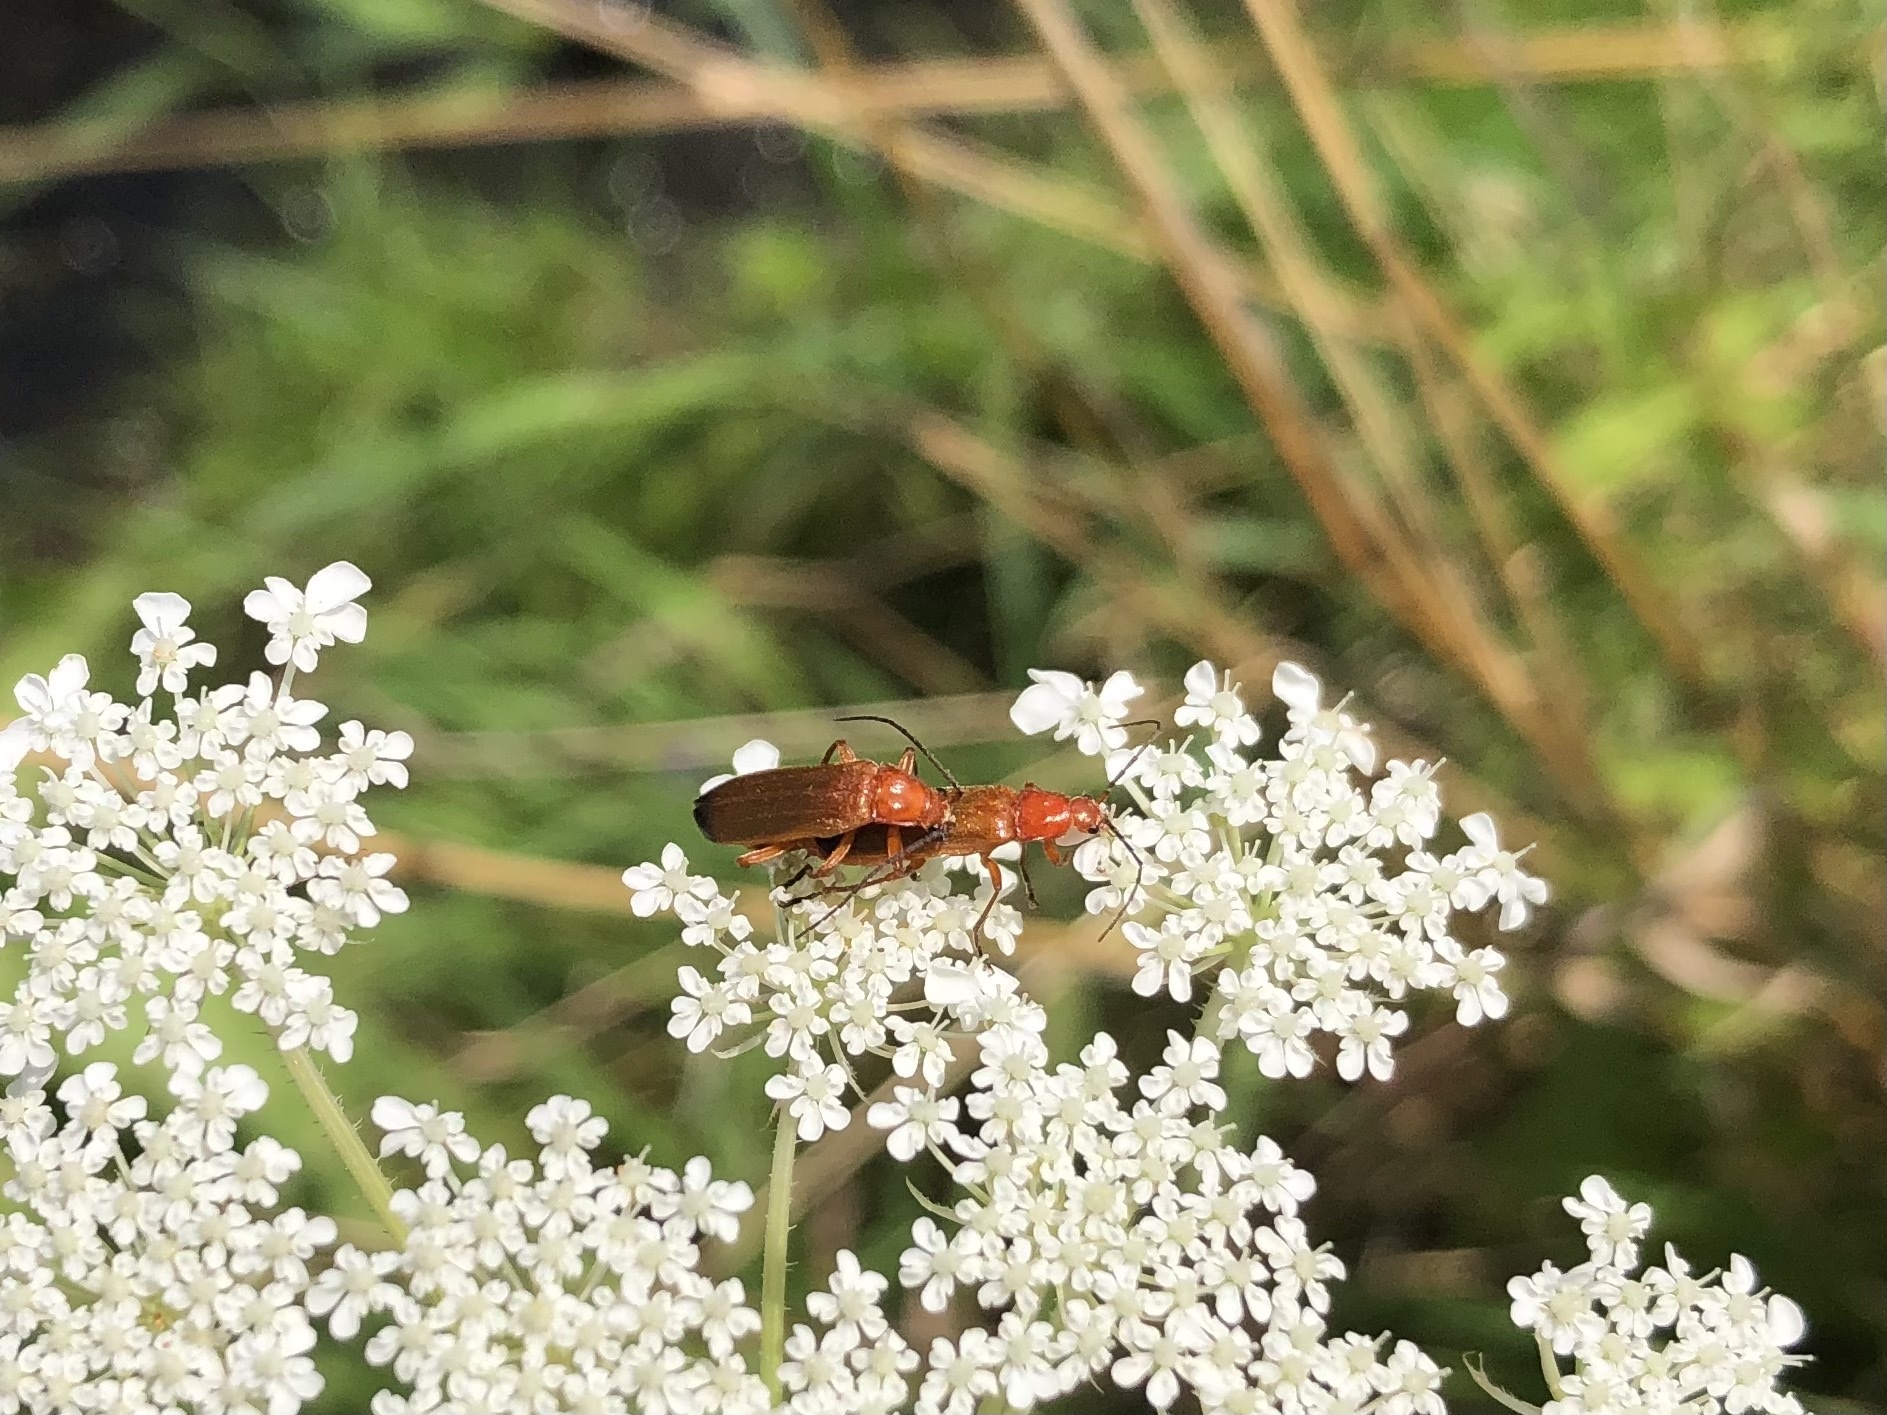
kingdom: Animalia
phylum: Arthropoda
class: Insecta
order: Coleoptera
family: Cantharidae
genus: Rhagonycha
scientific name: Rhagonycha fulva
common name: Common red soldier beetle
